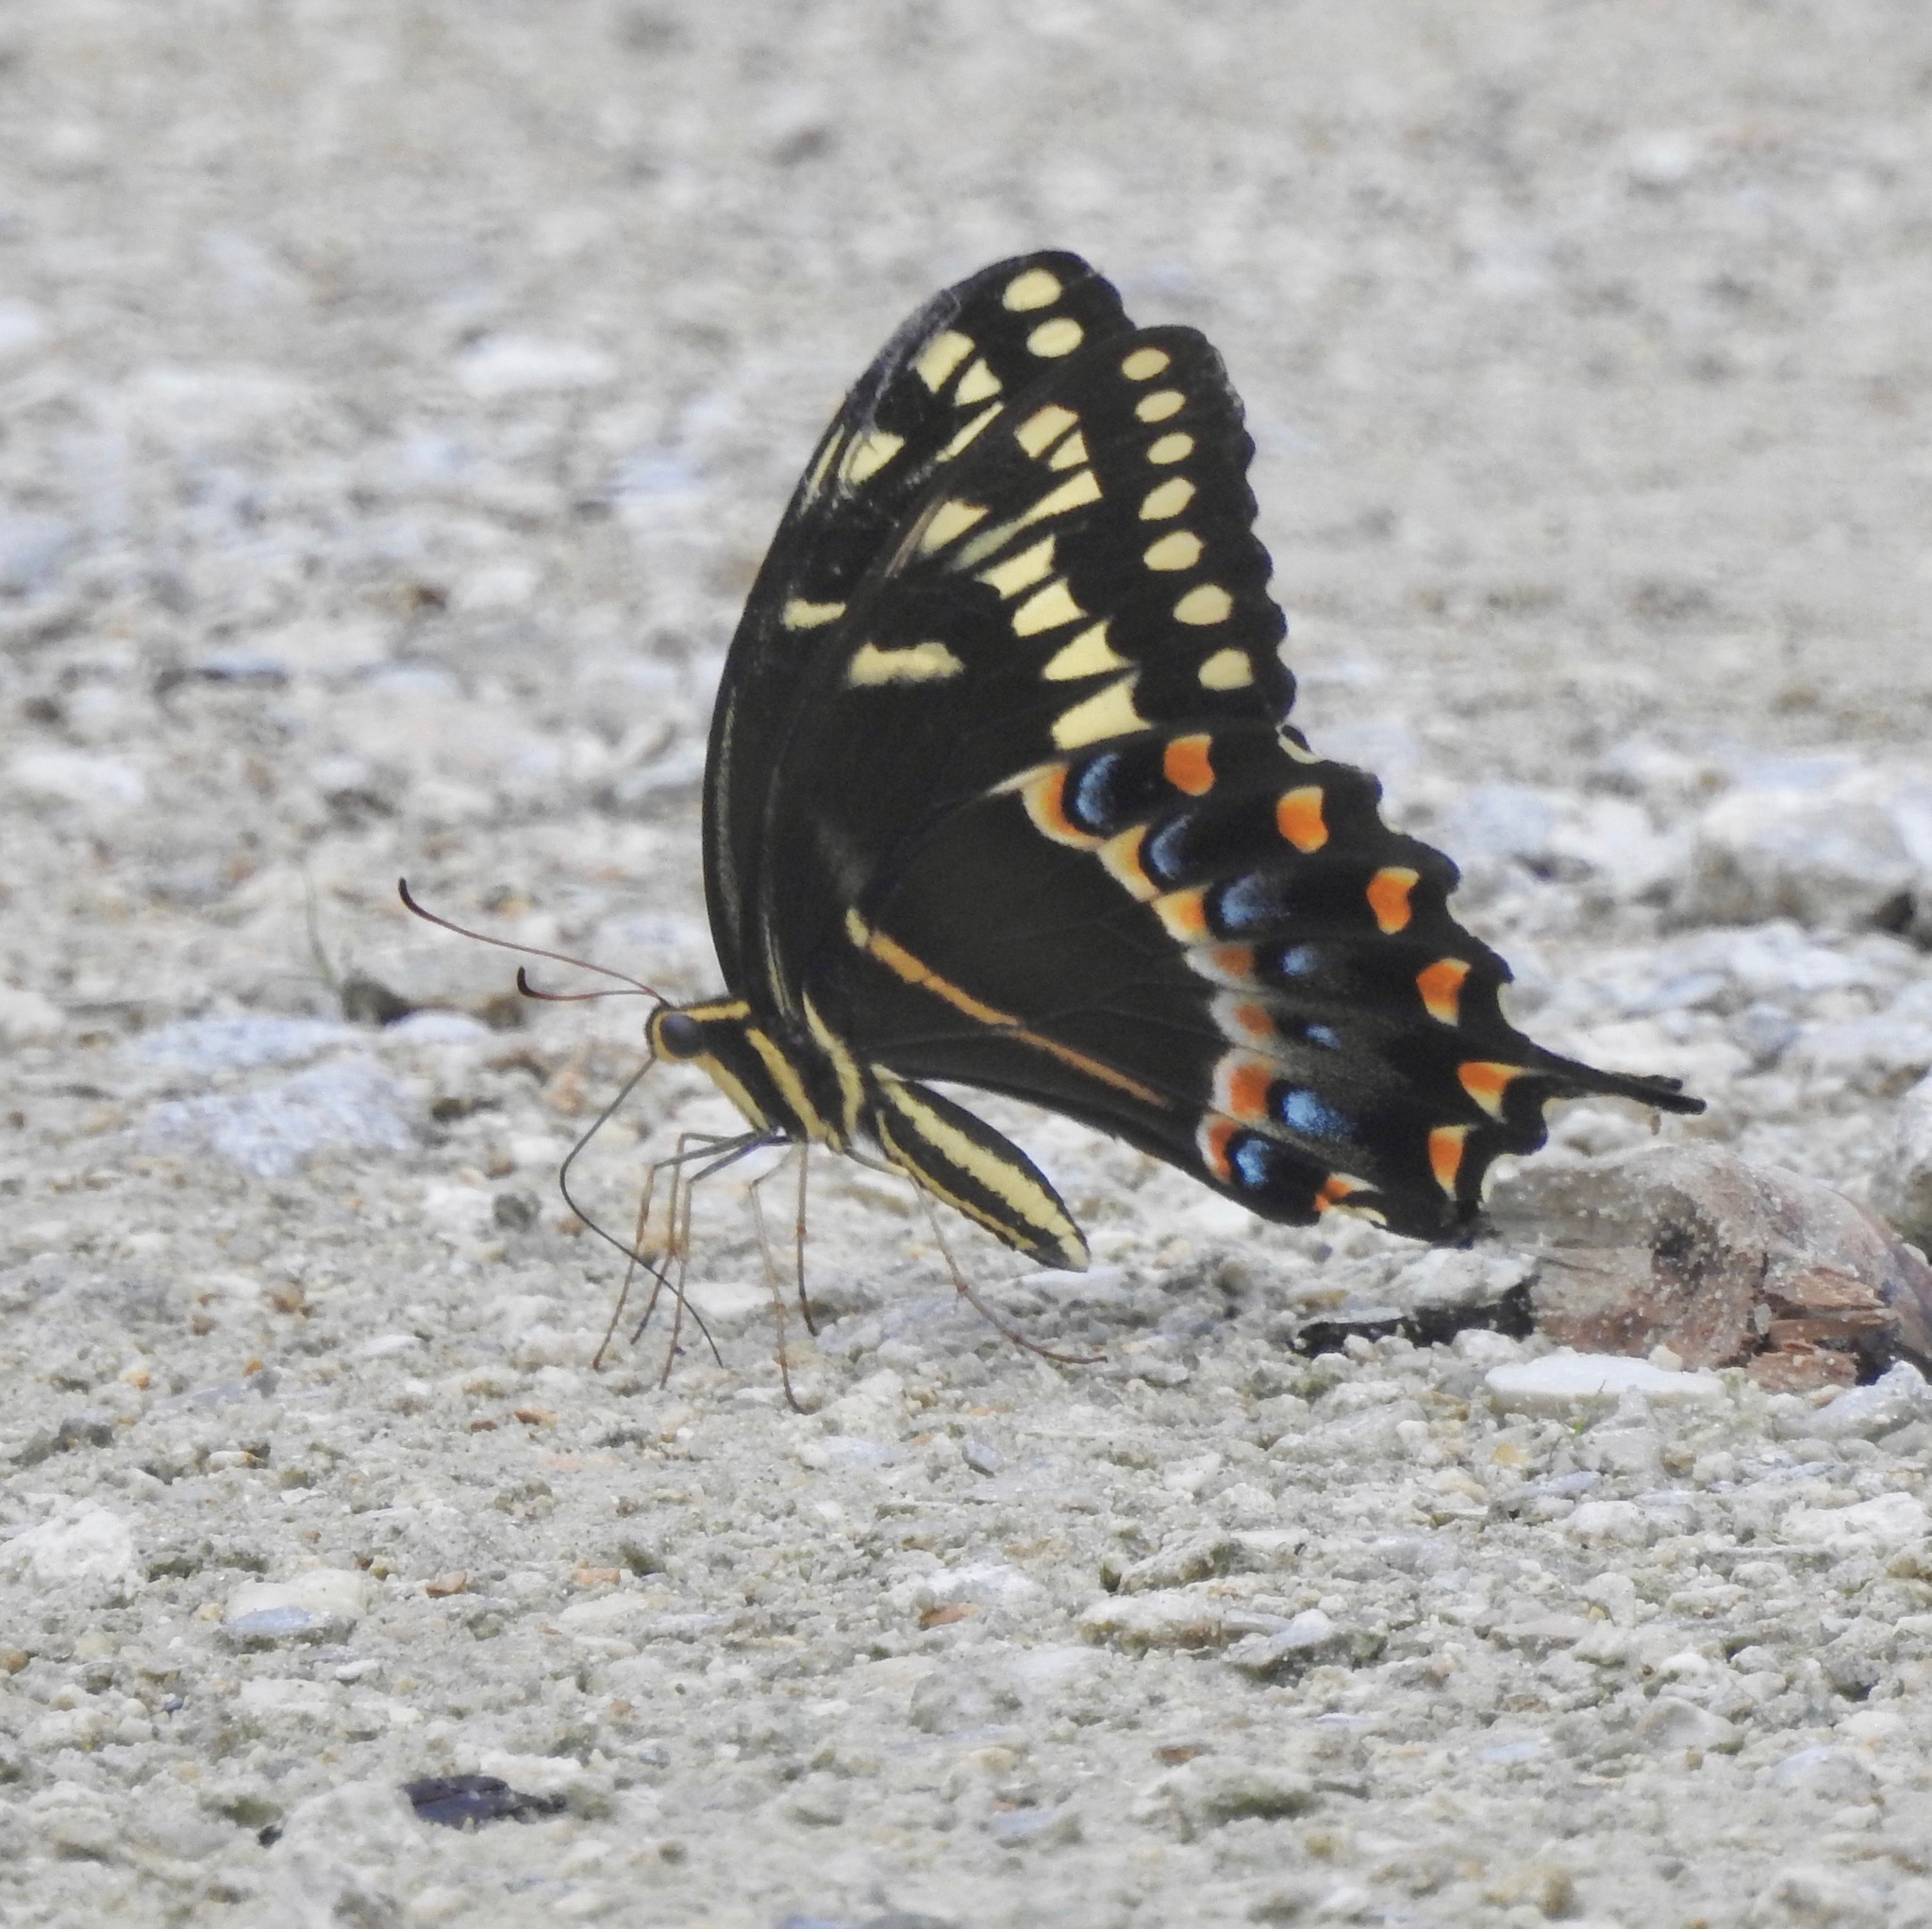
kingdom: Animalia
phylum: Arthropoda
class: Insecta
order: Lepidoptera
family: Papilionidae
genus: Papilio
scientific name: Papilio palamedes
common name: Palamedes swallowtail
